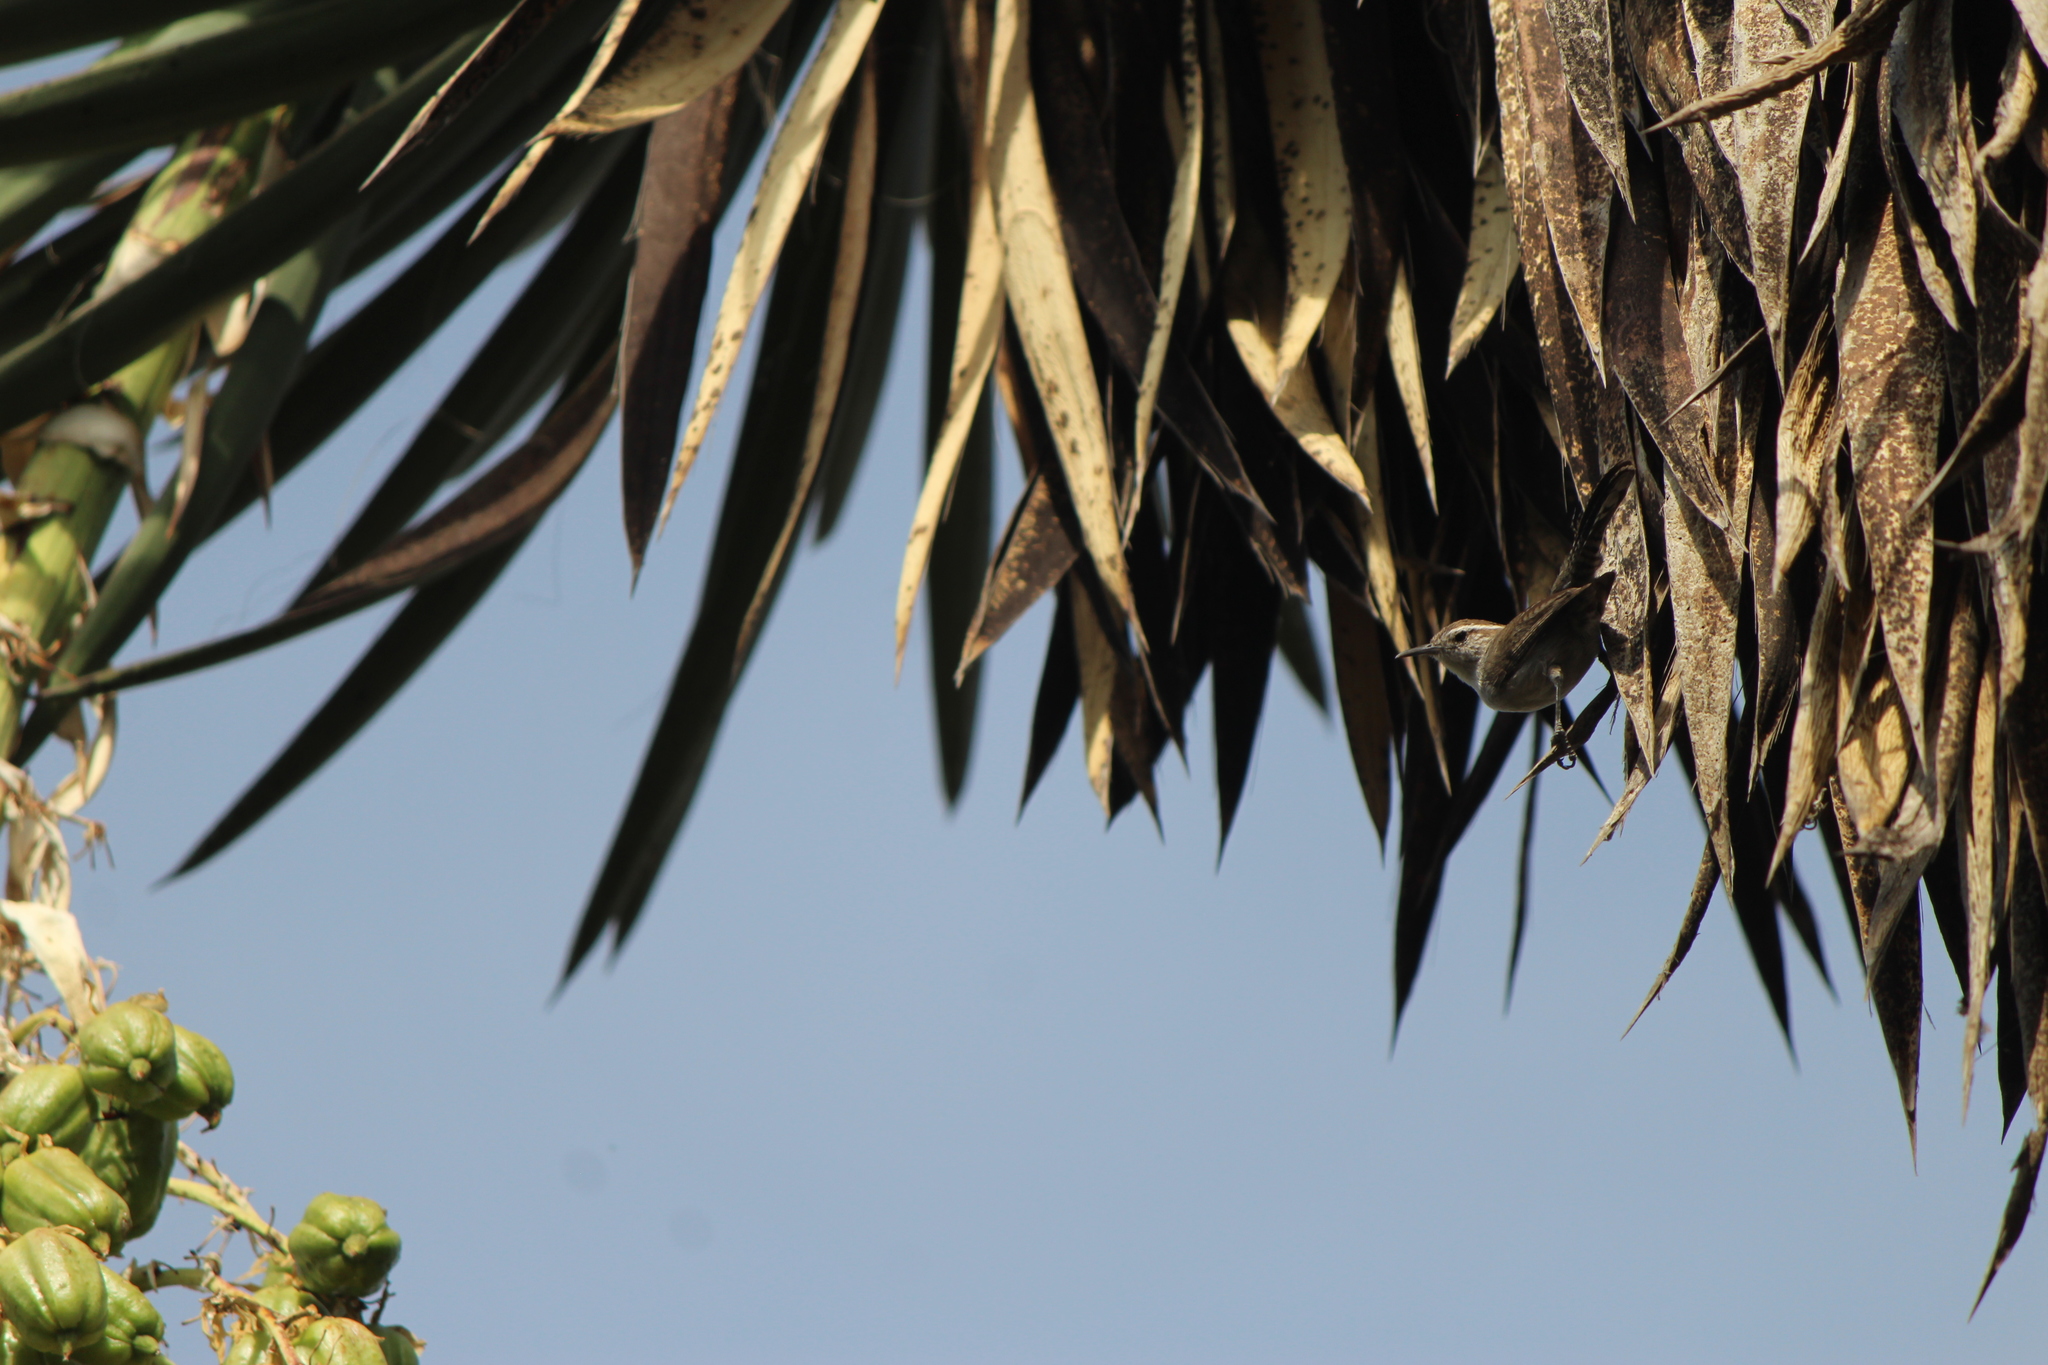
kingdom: Animalia
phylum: Chordata
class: Aves
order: Passeriformes
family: Troglodytidae
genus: Thryomanes
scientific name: Thryomanes bewickii
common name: Bewick's wren
